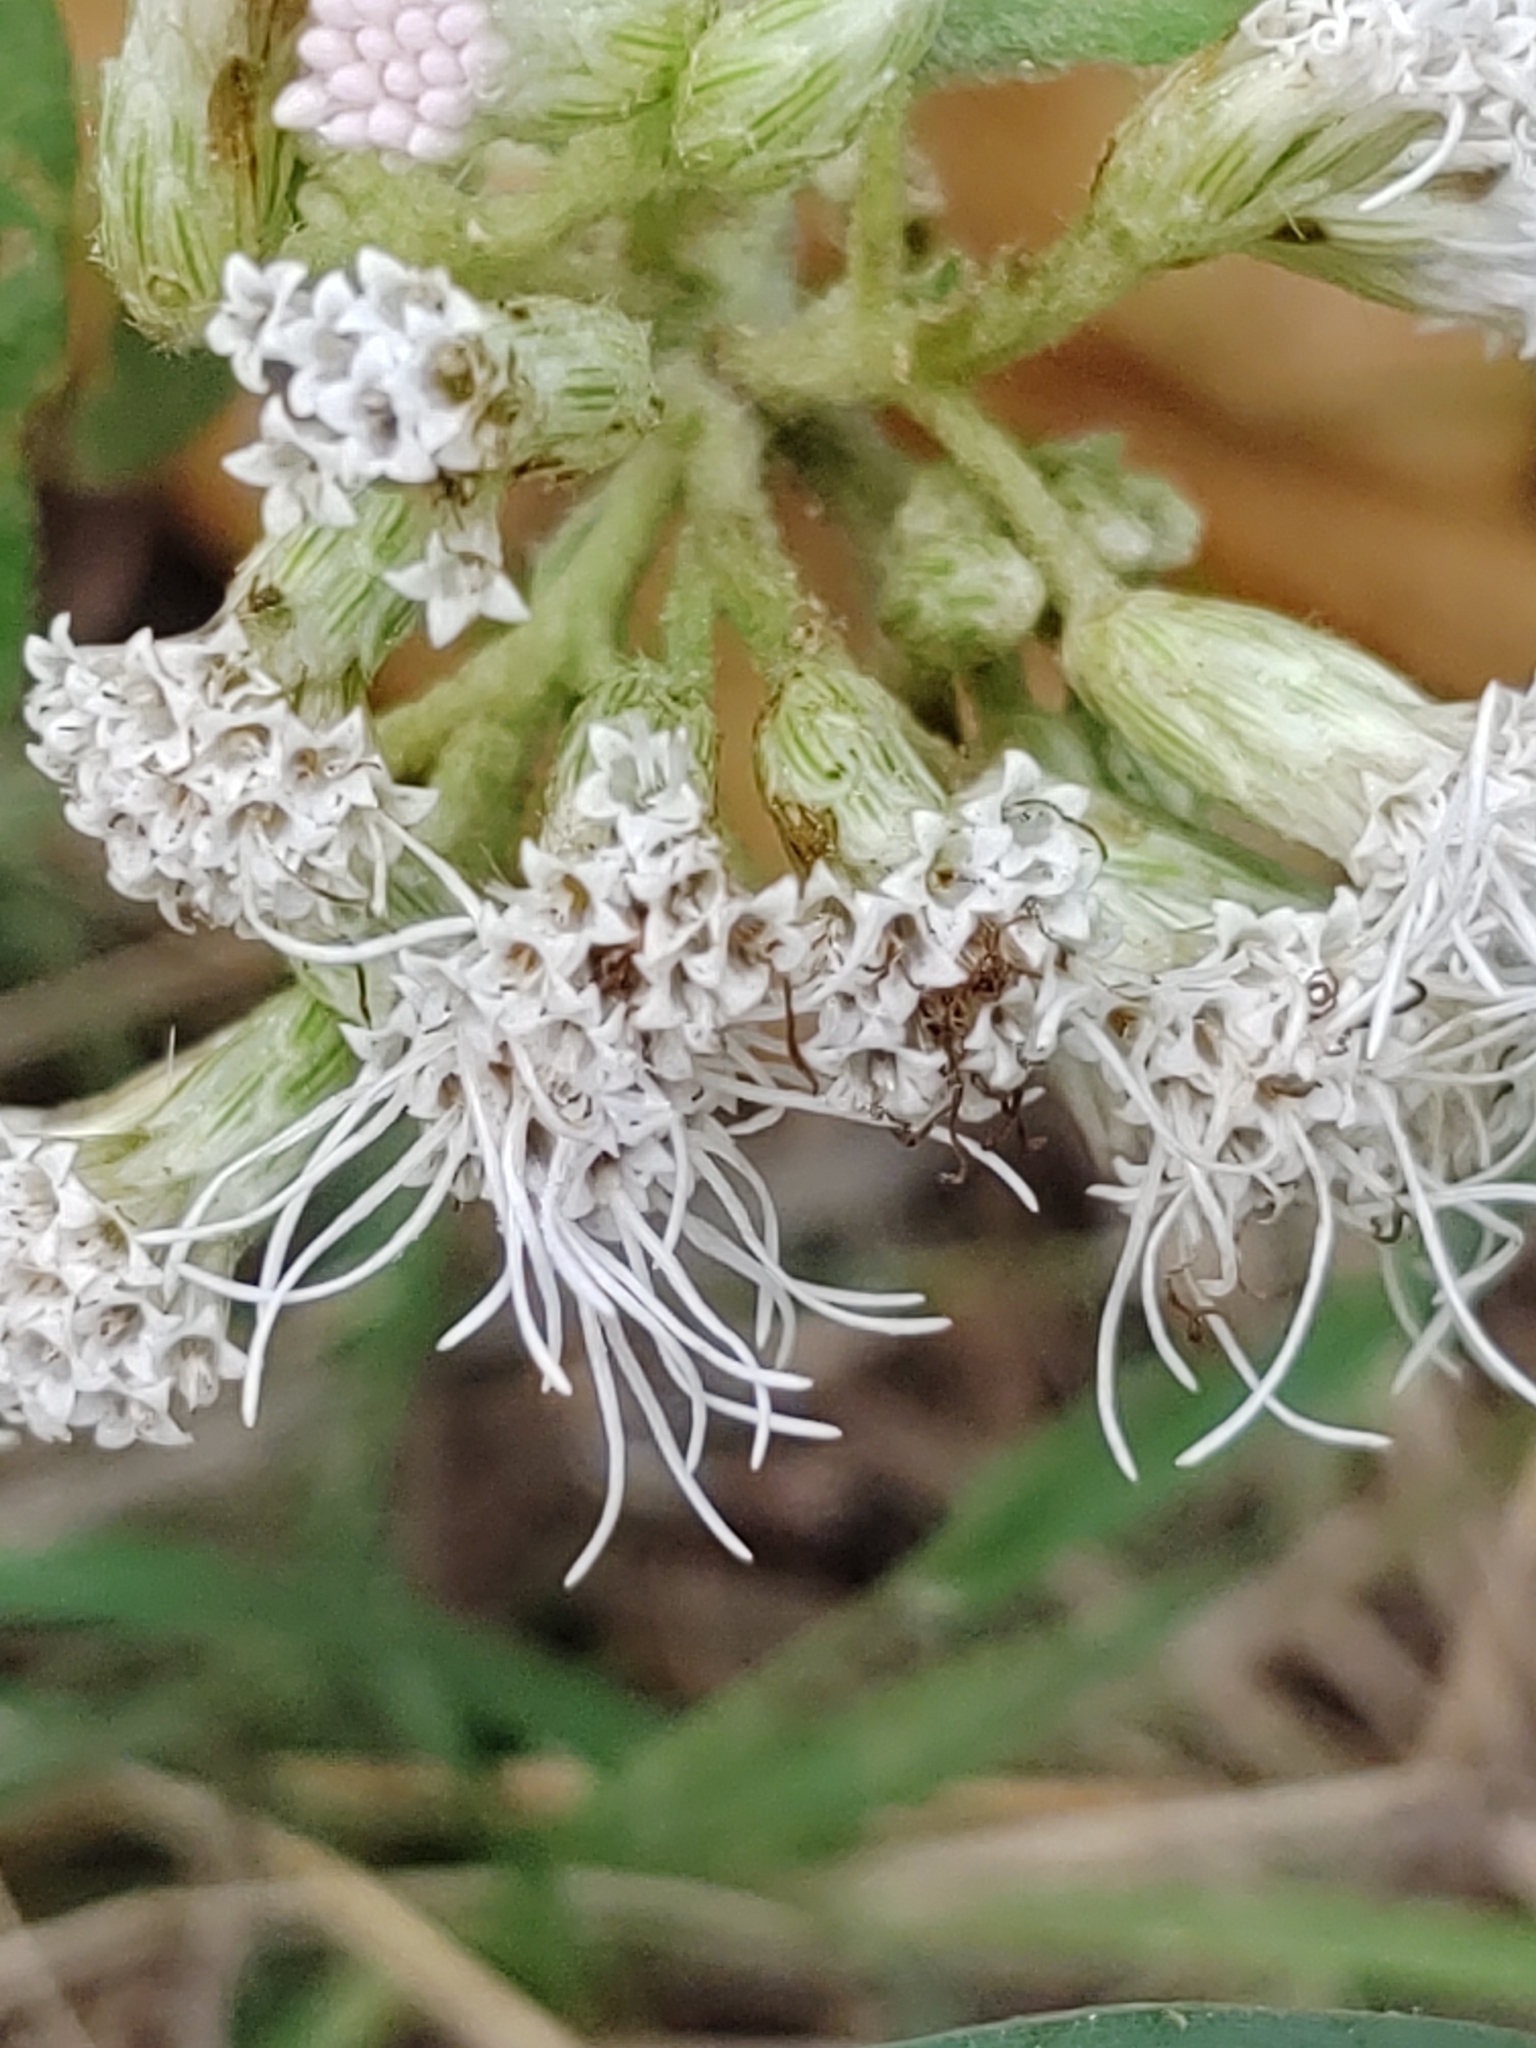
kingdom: Plantae
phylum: Tracheophyta
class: Magnoliopsida
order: Asterales
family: Asteraceae
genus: Chromolaena
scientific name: Chromolaena odorata
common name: Siamweed
